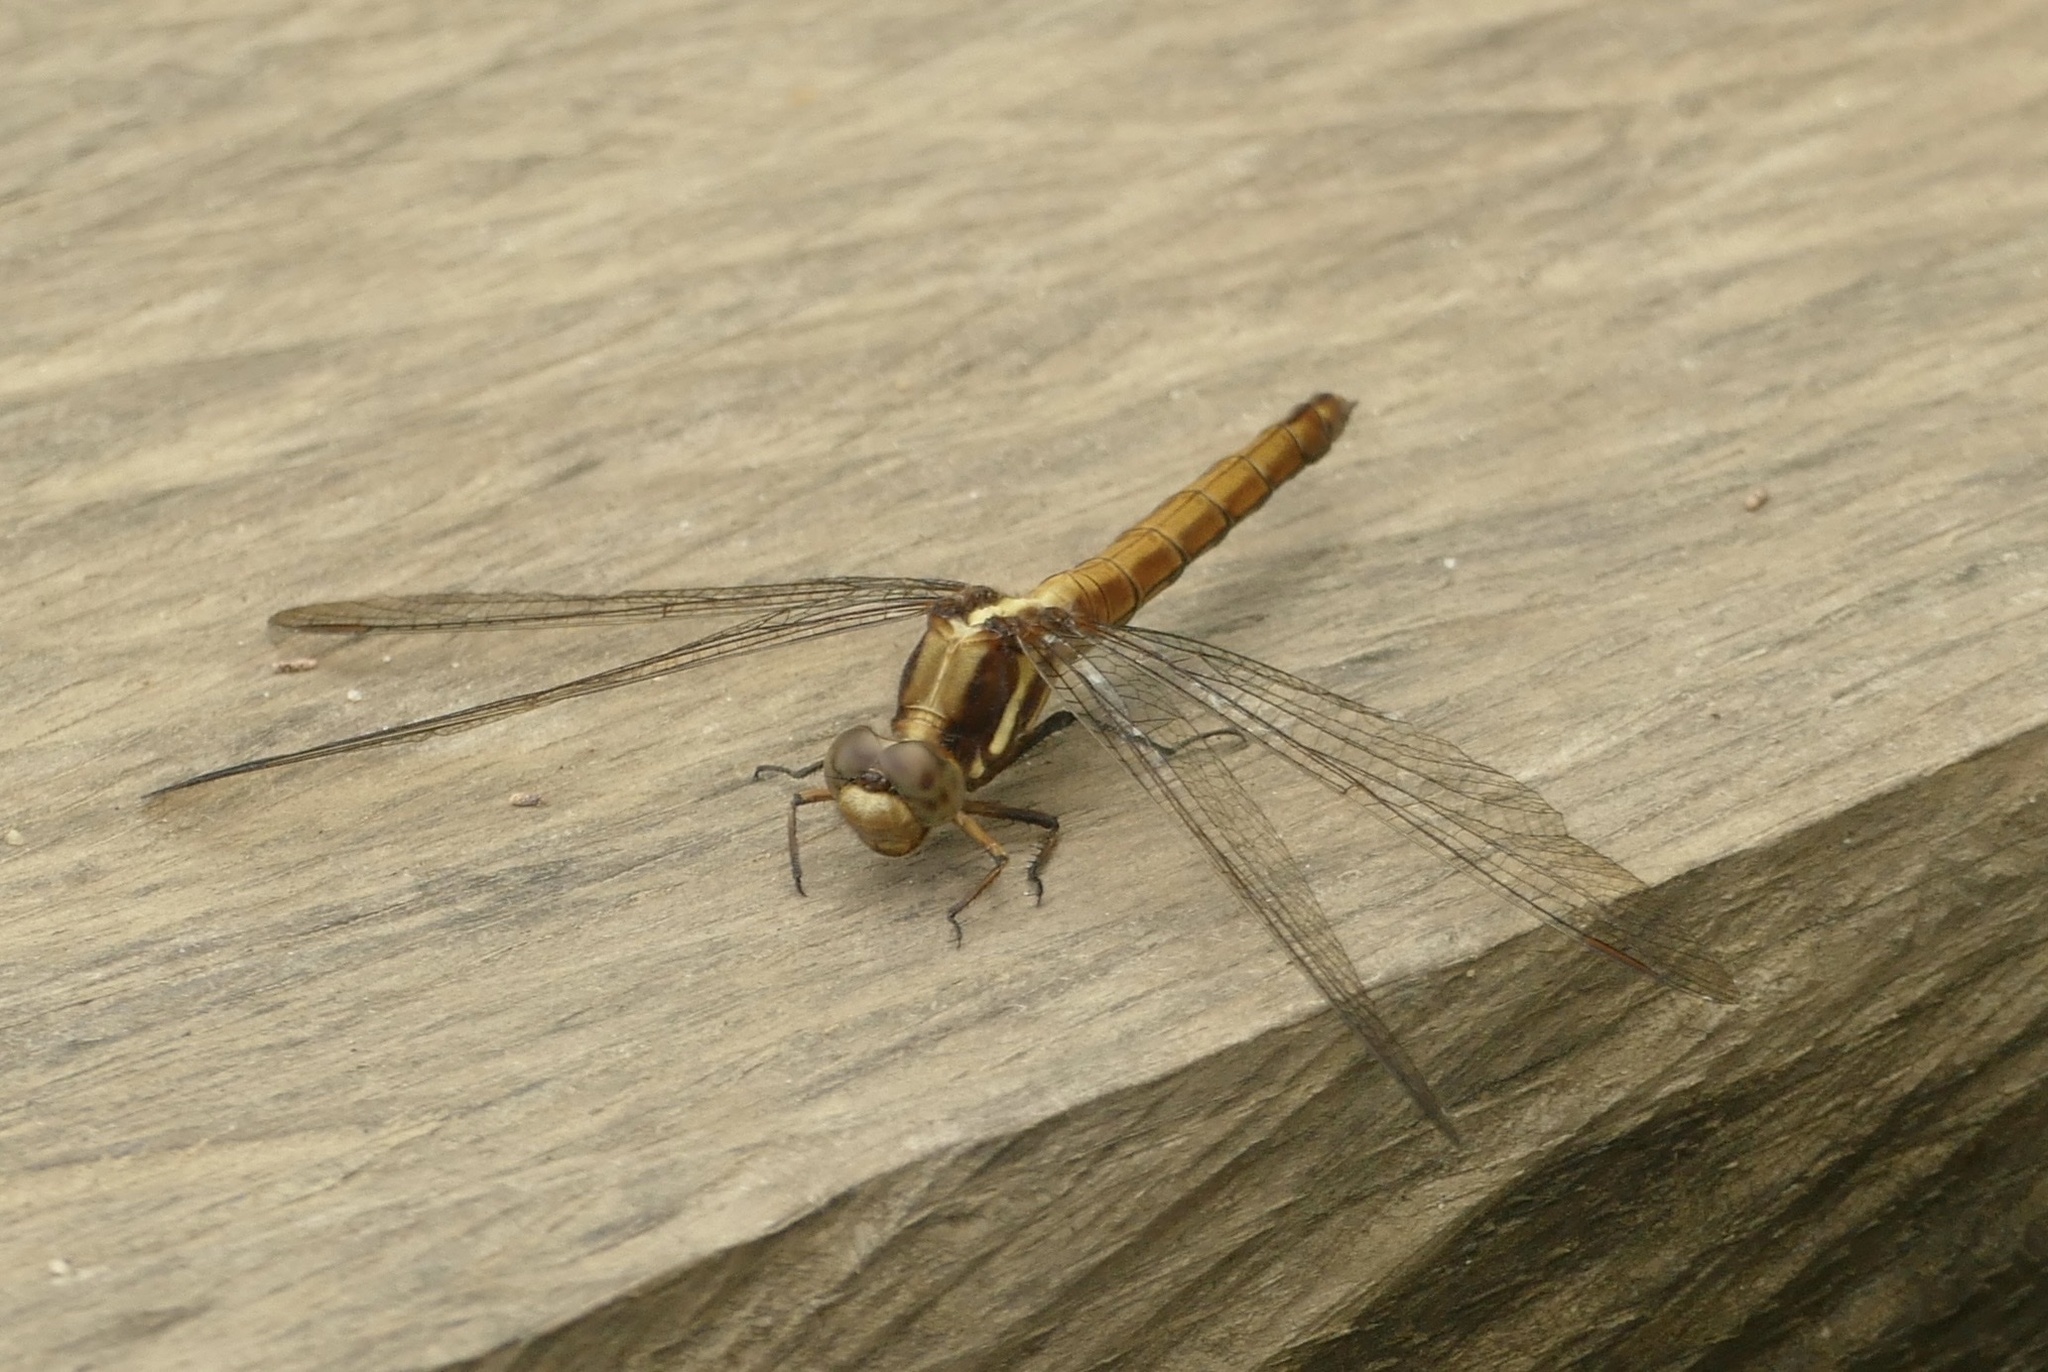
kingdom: Animalia
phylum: Arthropoda
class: Insecta
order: Odonata
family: Libellulidae
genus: Orthetrum
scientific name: Orthetrum glaucum
